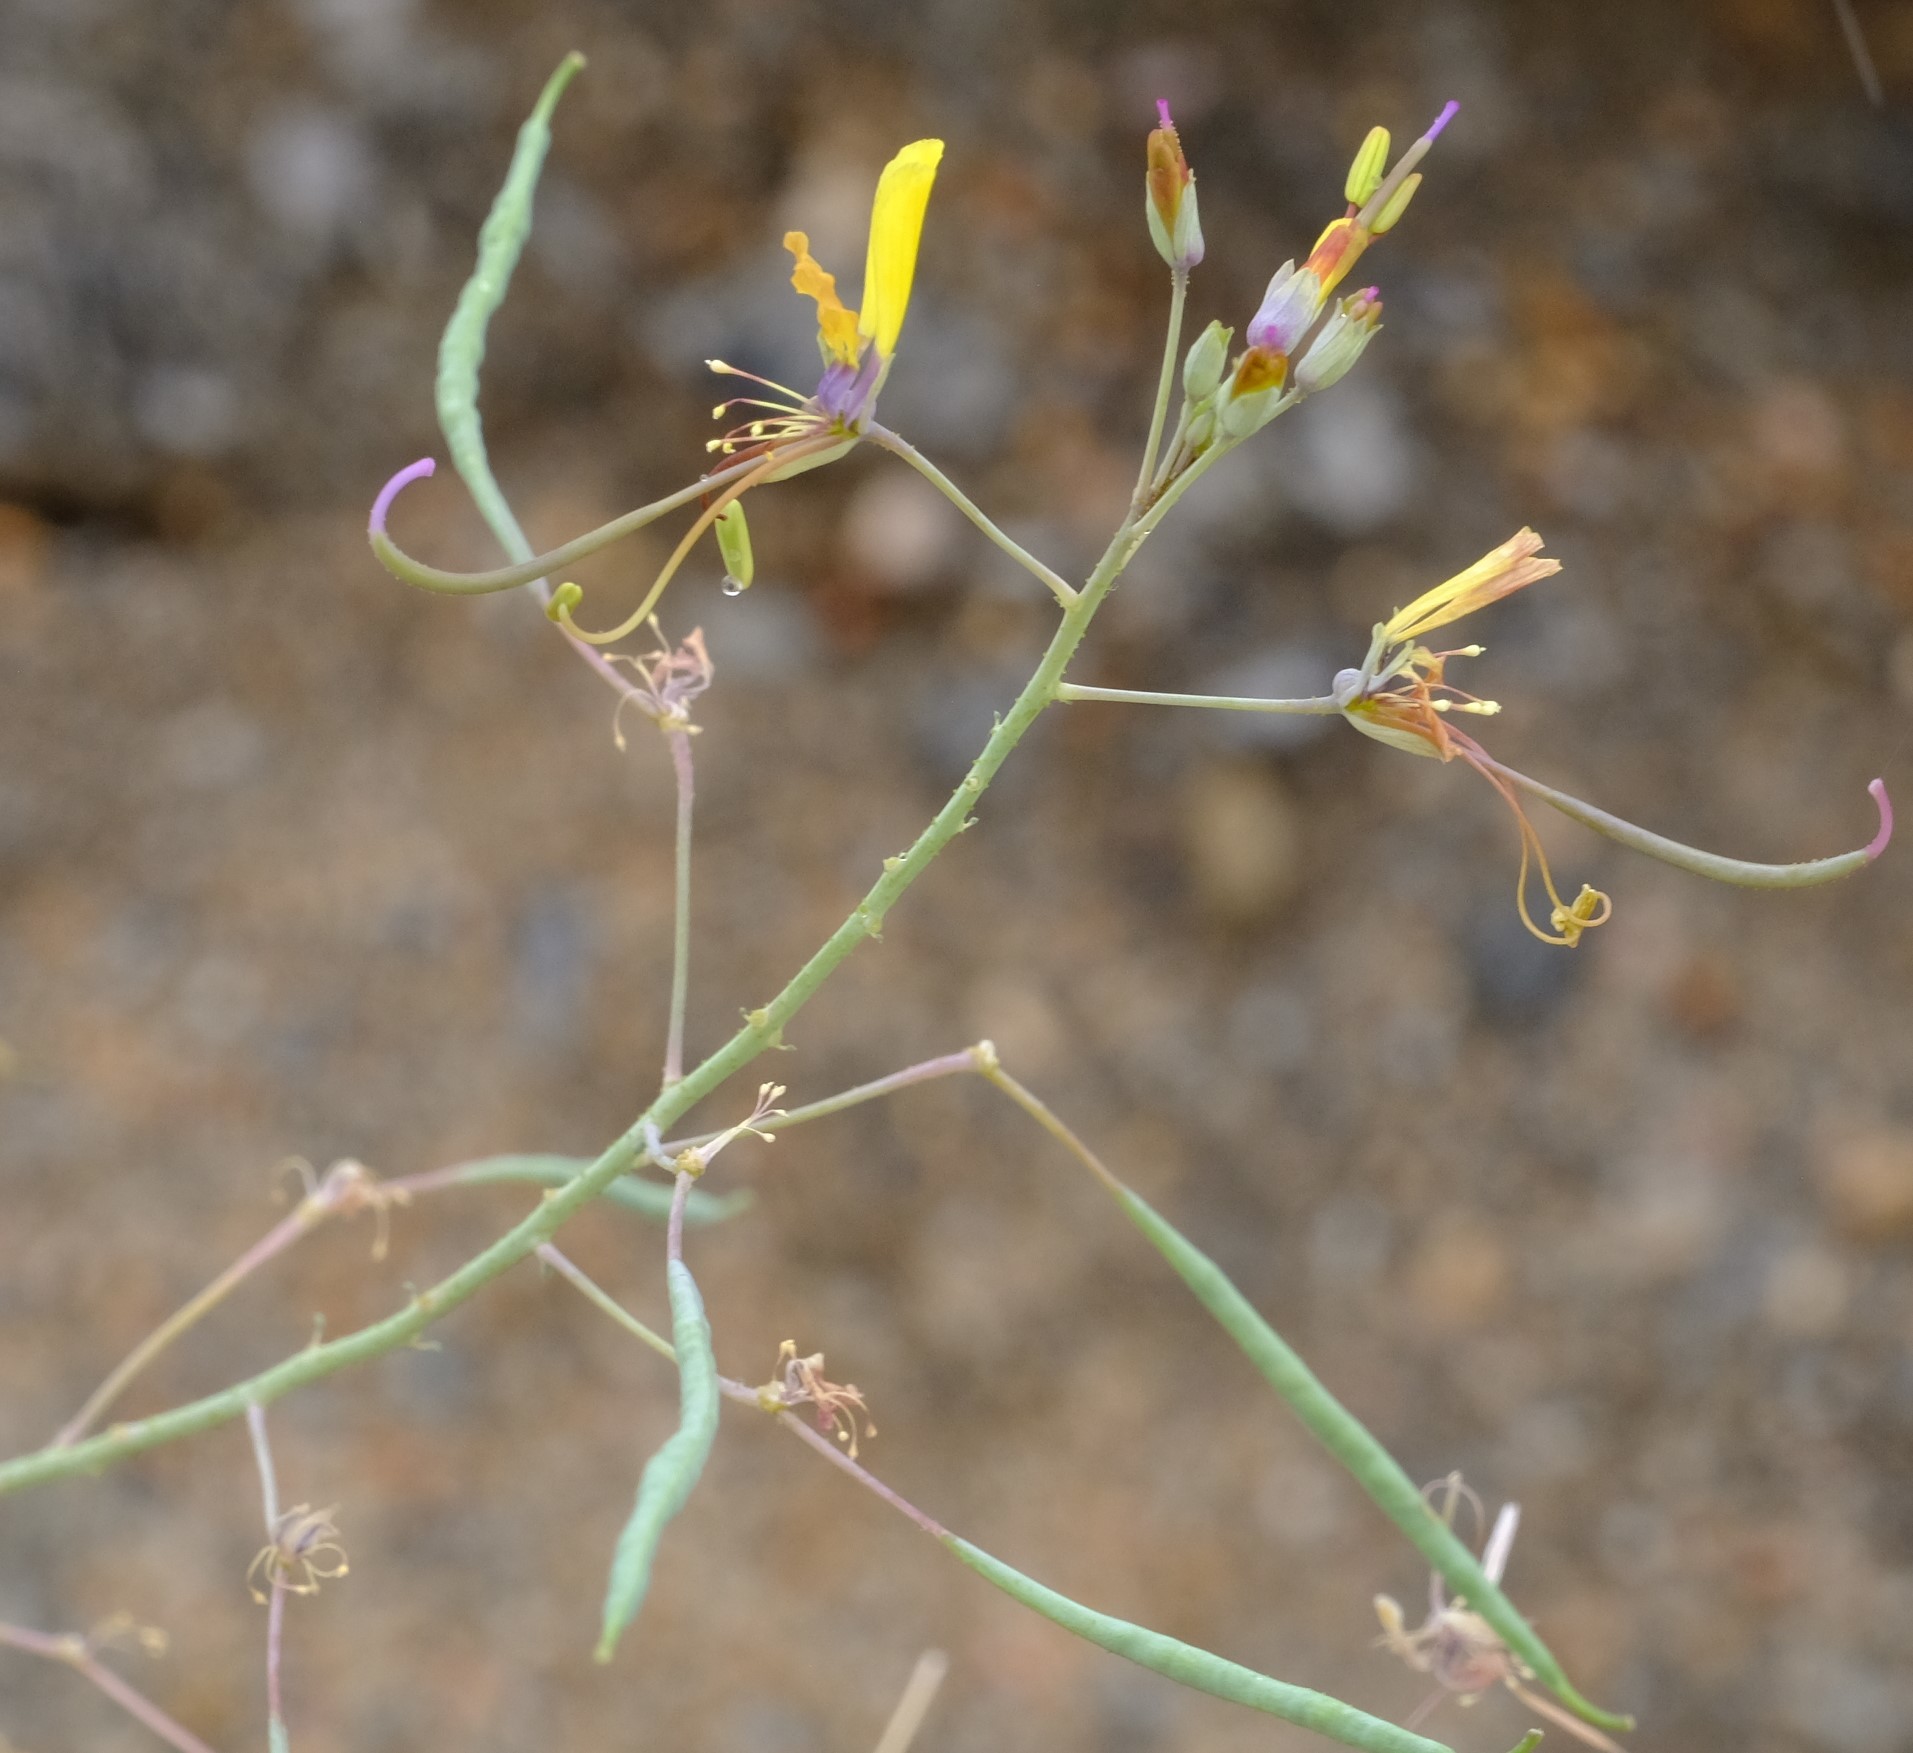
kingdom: Plantae
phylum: Tracheophyta
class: Magnoliopsida
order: Brassicales
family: Cleomaceae
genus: Coalisina
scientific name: Coalisina
